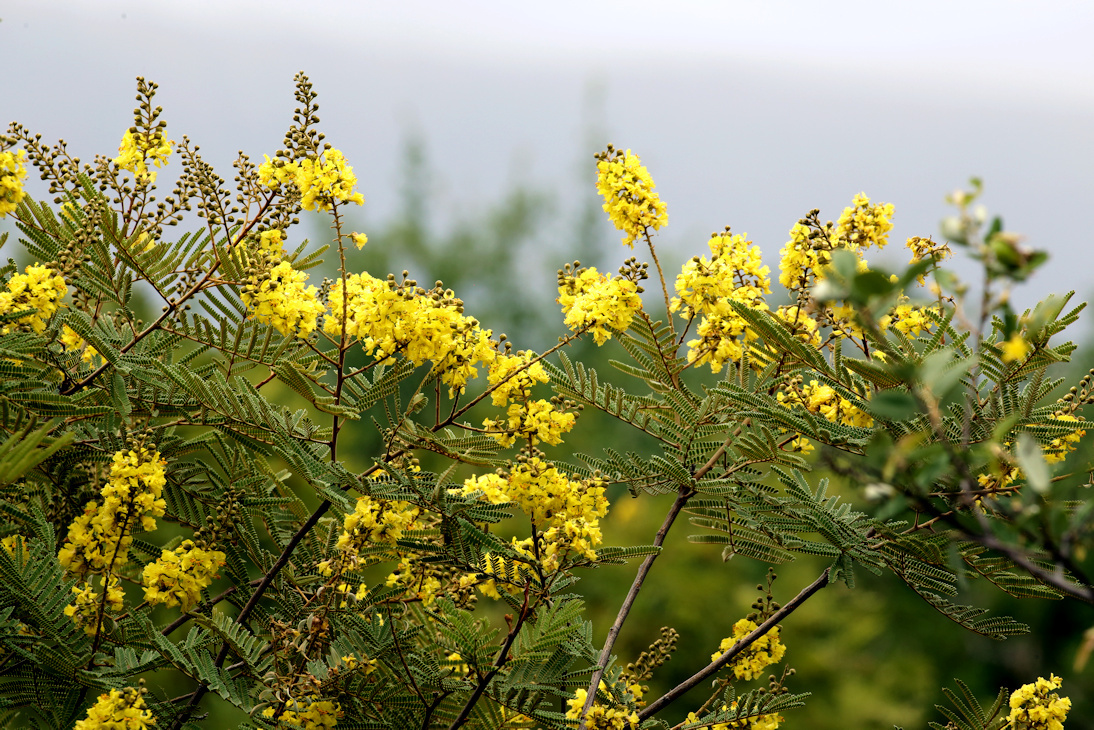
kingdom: Plantae
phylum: Tracheophyta
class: Magnoliopsida
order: Fabales
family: Fabaceae
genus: Peltophorum
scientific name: Peltophorum africanum
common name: African black wattle
